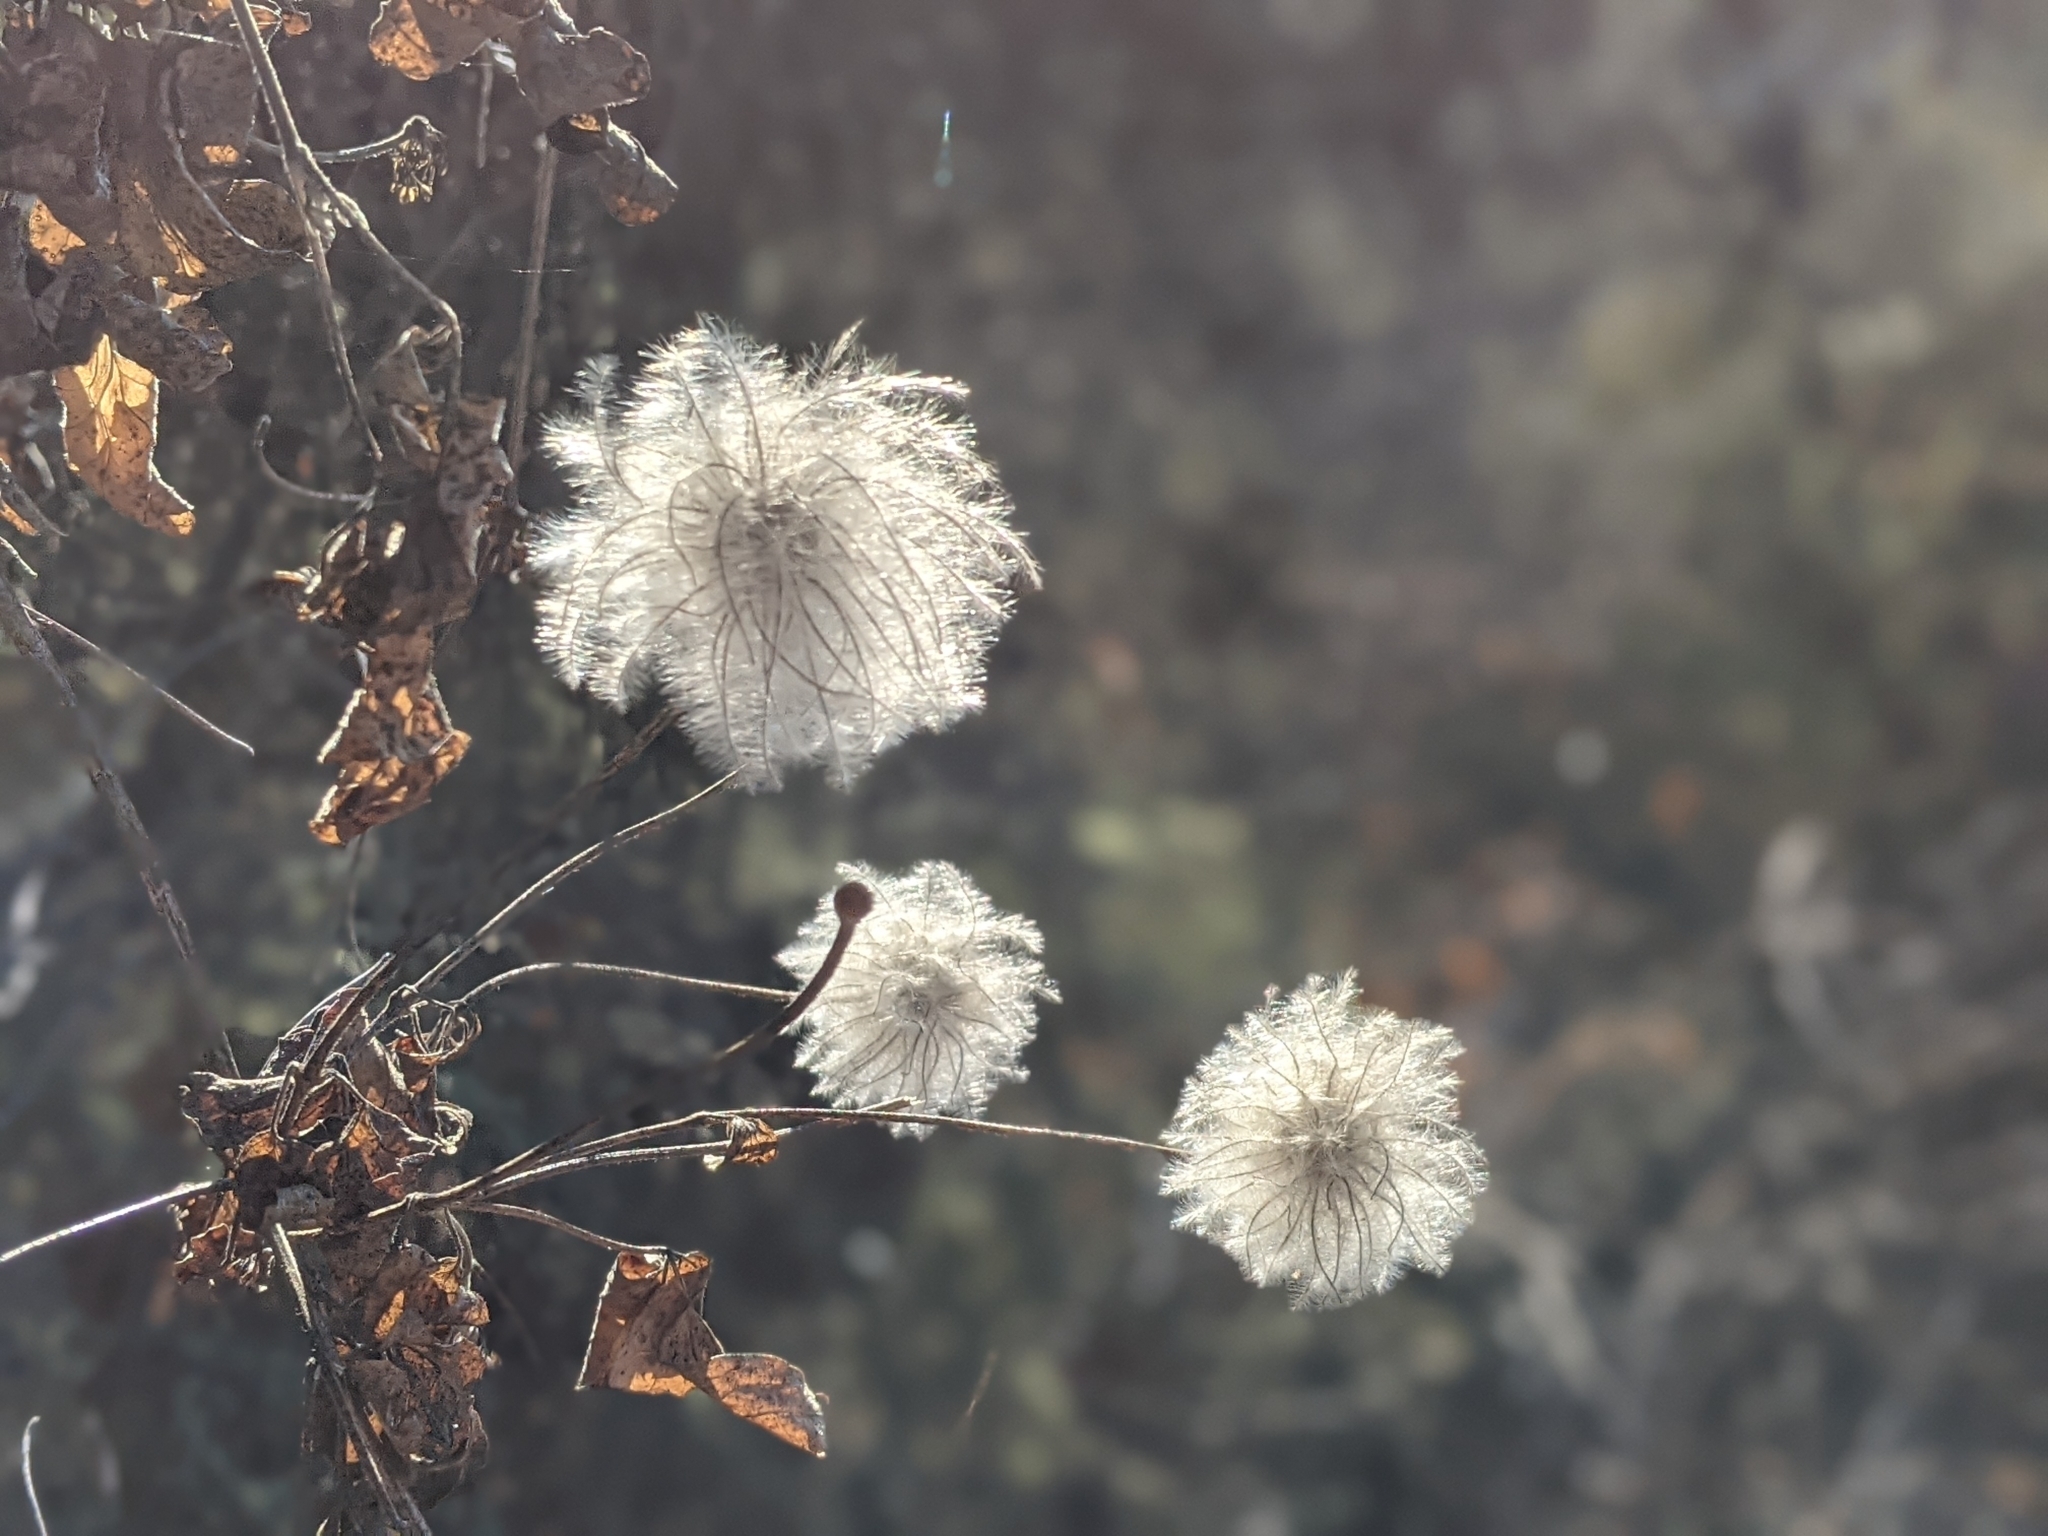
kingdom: Plantae
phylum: Tracheophyta
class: Magnoliopsida
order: Ranunculales
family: Ranunculaceae
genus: Clematis
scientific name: Clematis lasiantha
